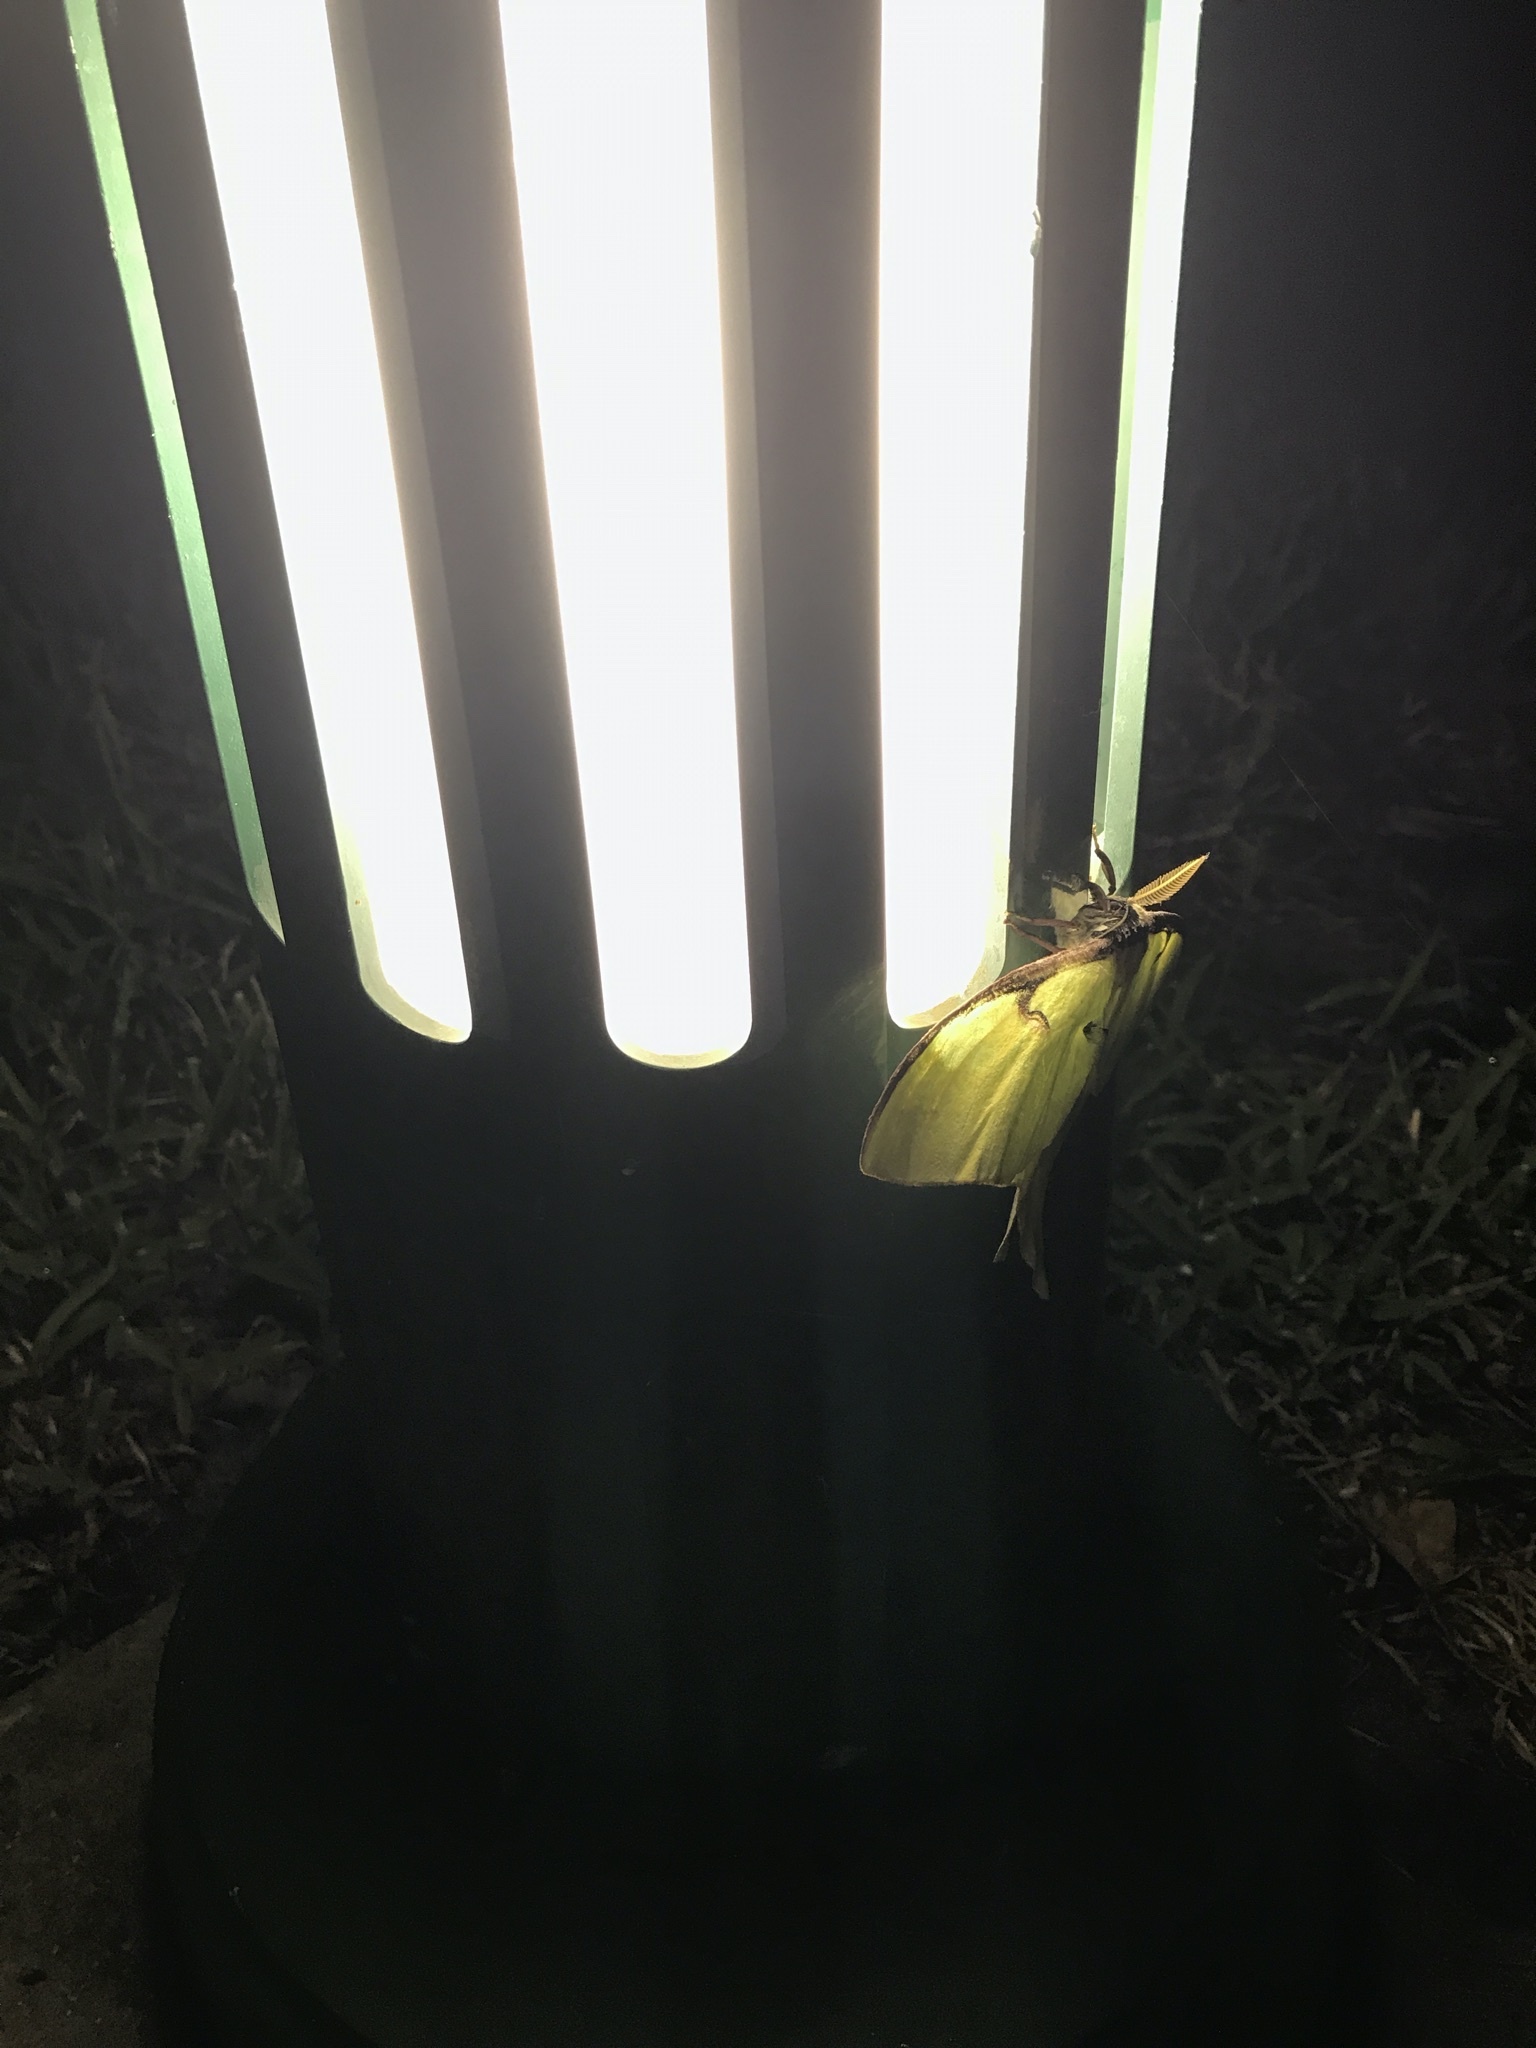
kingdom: Animalia
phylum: Arthropoda
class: Insecta
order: Lepidoptera
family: Saturniidae
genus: Actias
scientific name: Actias luna
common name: Luna moth
